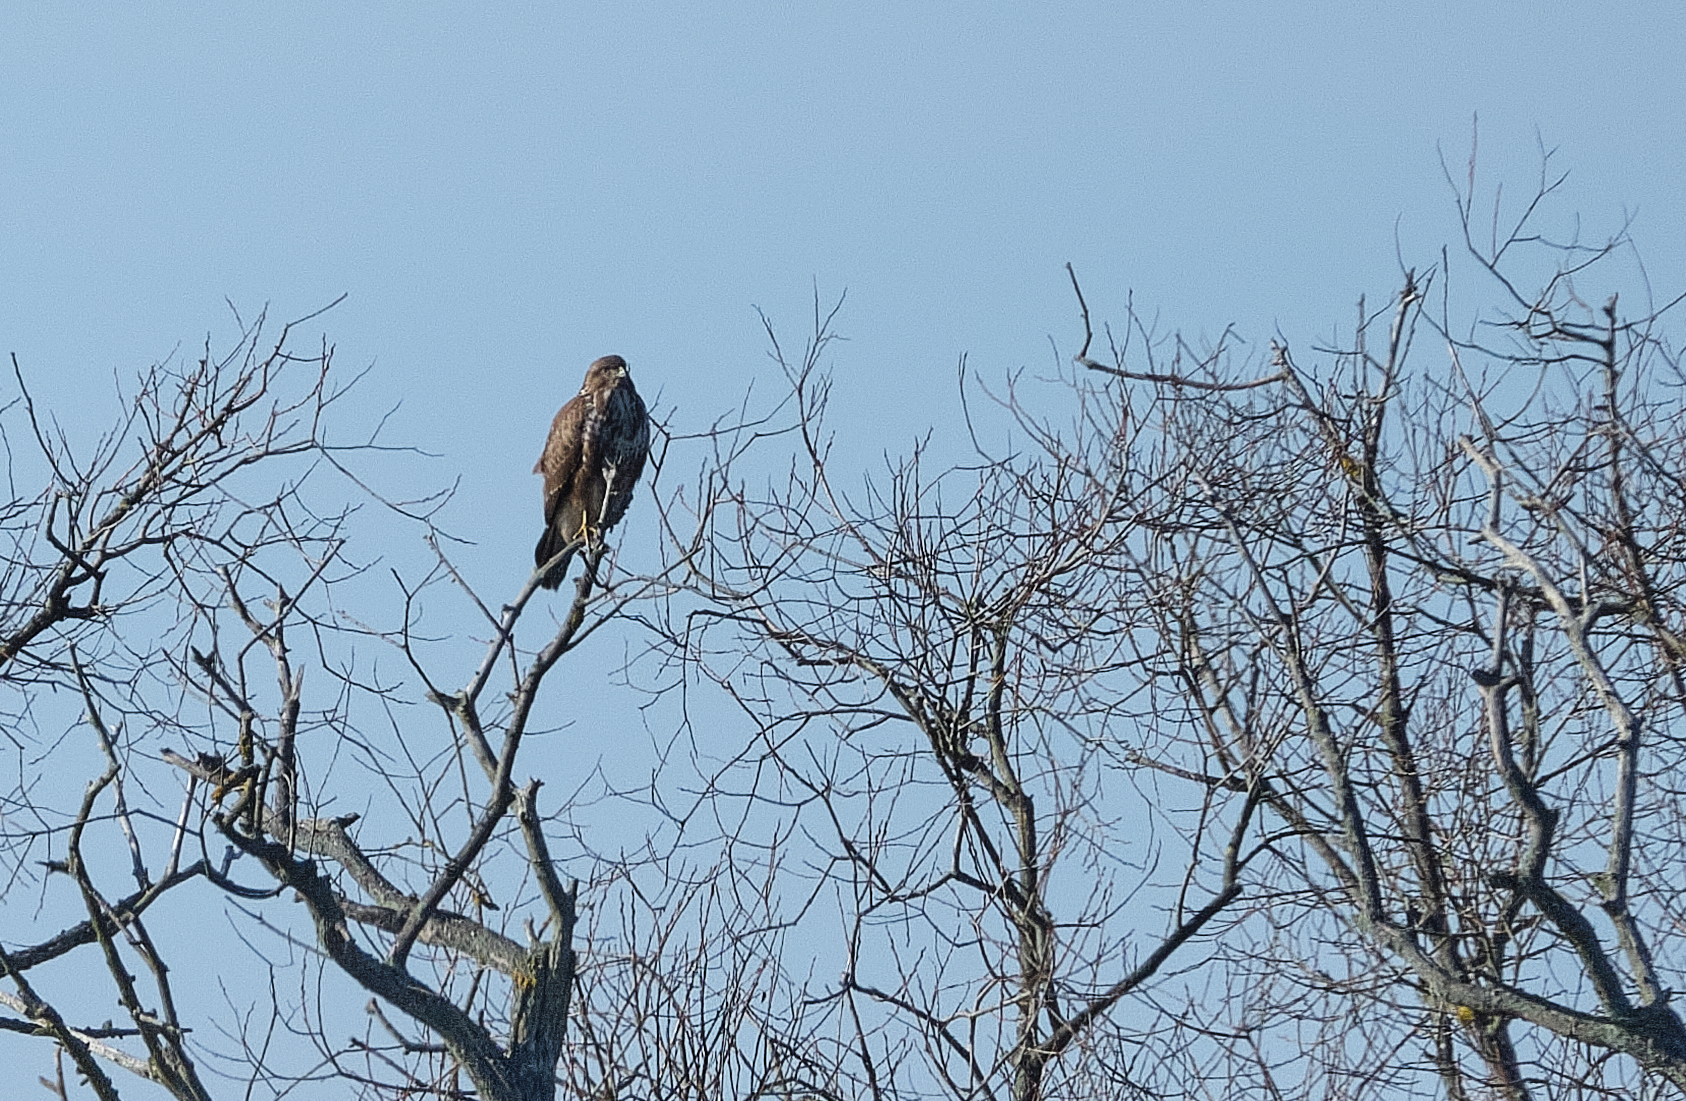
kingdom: Animalia
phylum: Chordata
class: Aves
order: Accipitriformes
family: Accipitridae
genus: Buteo
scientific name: Buteo buteo
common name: Common buzzard
